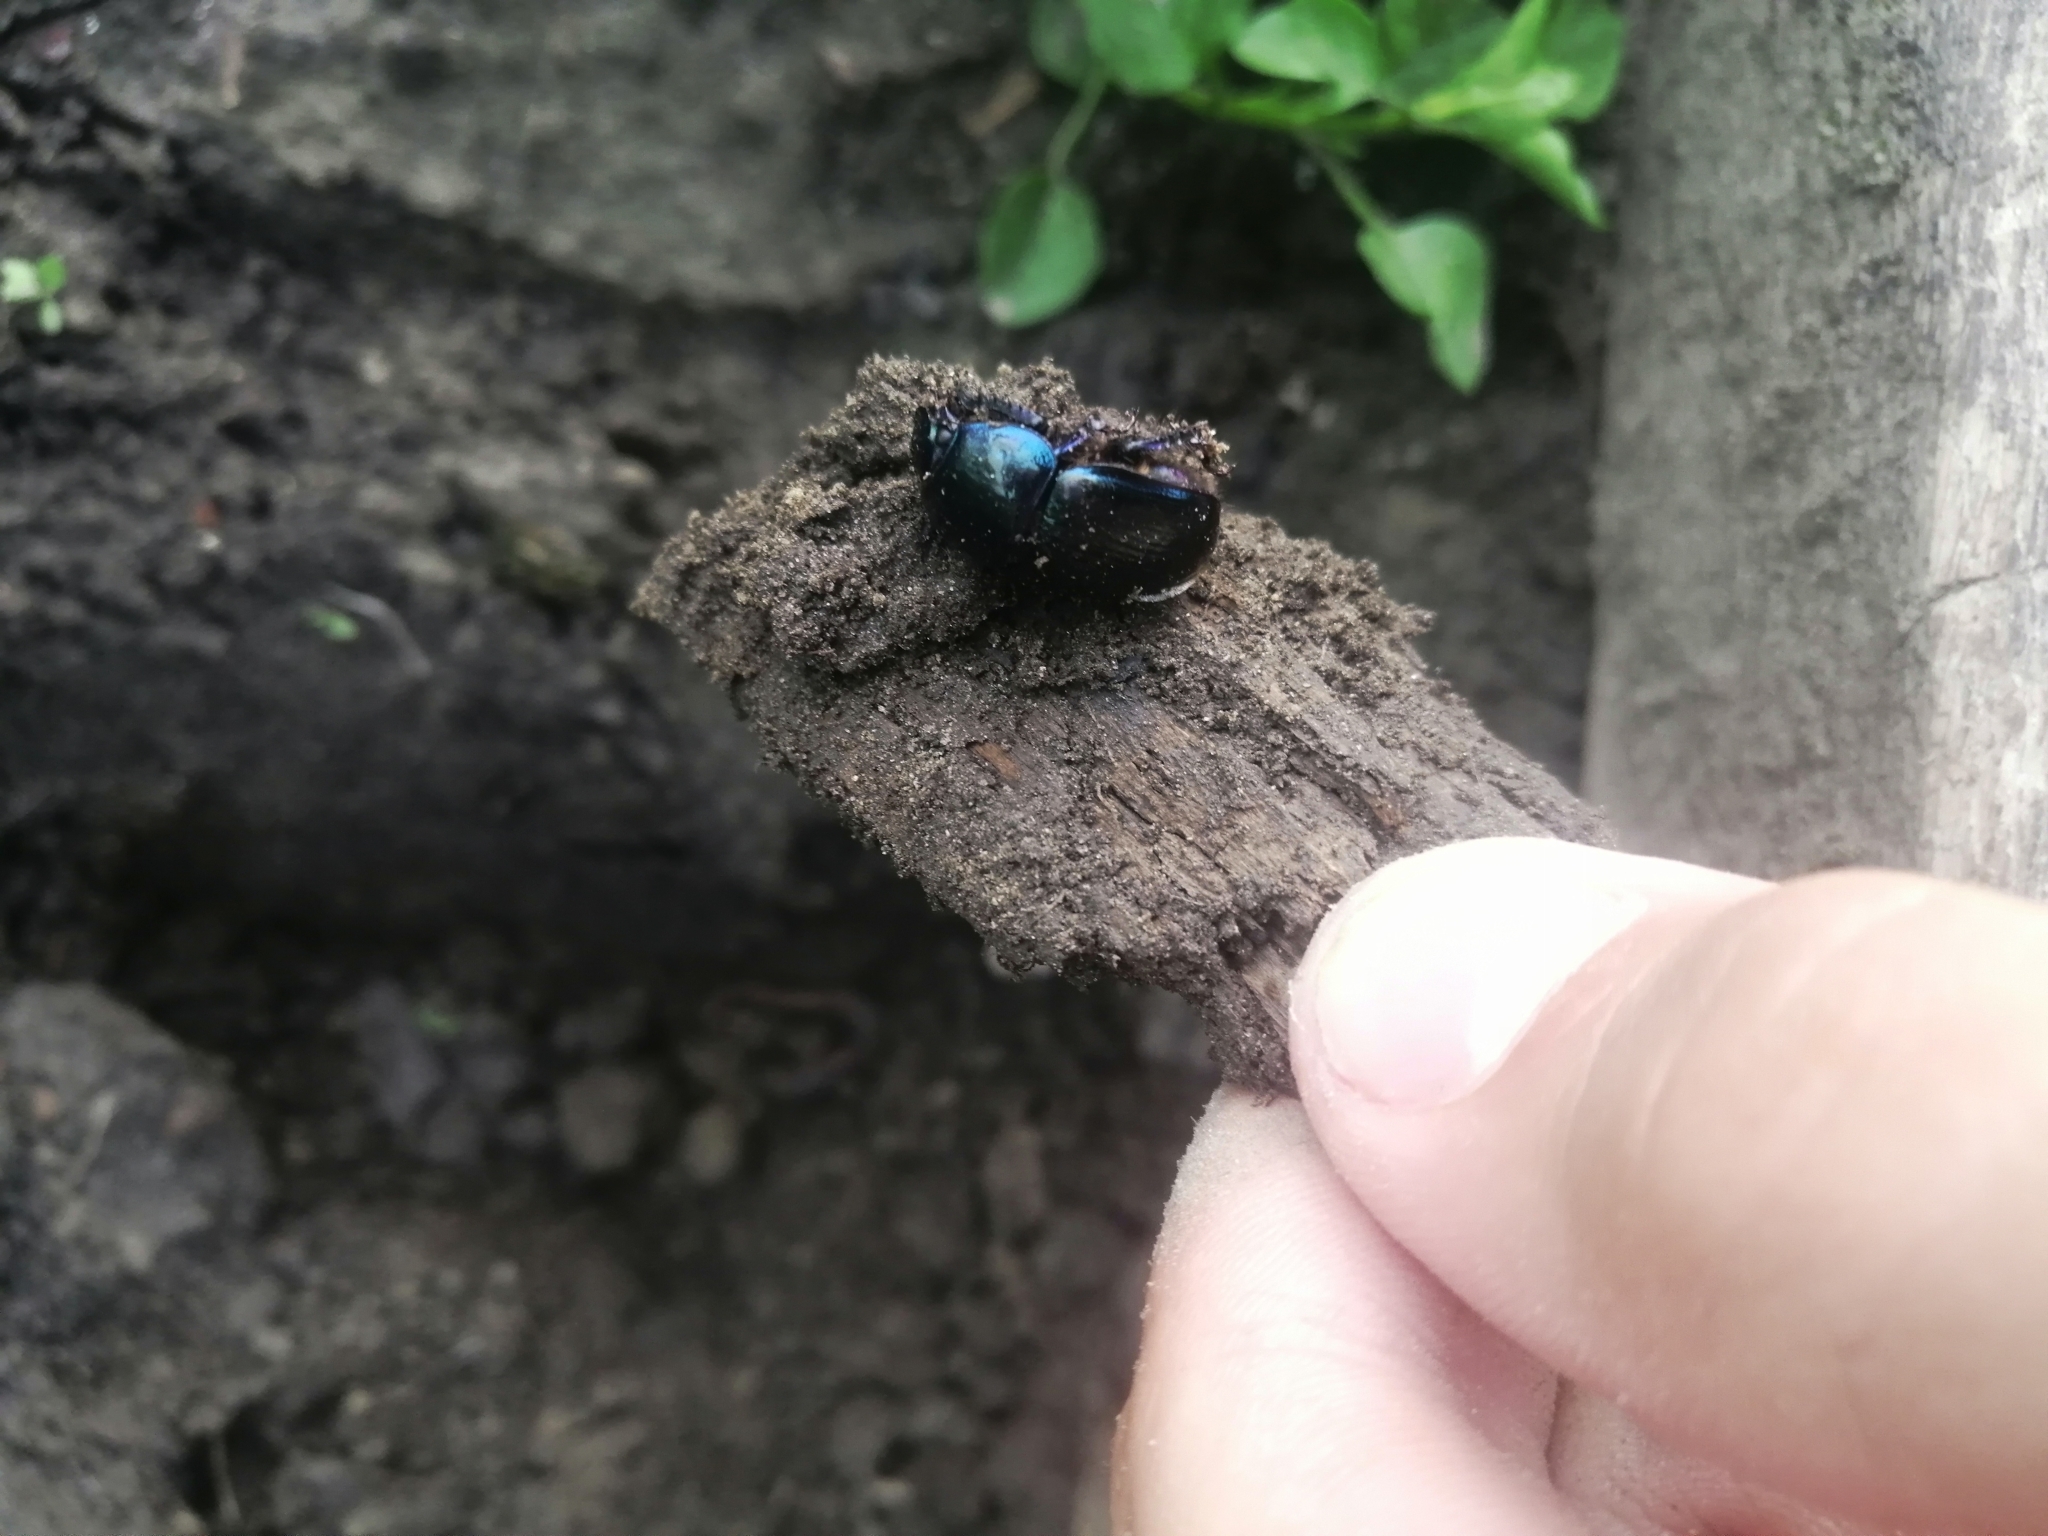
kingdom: Animalia
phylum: Arthropoda
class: Insecta
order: Coleoptera
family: Geotrupidae
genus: Anoplotrupes
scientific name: Anoplotrupes stercorosus
